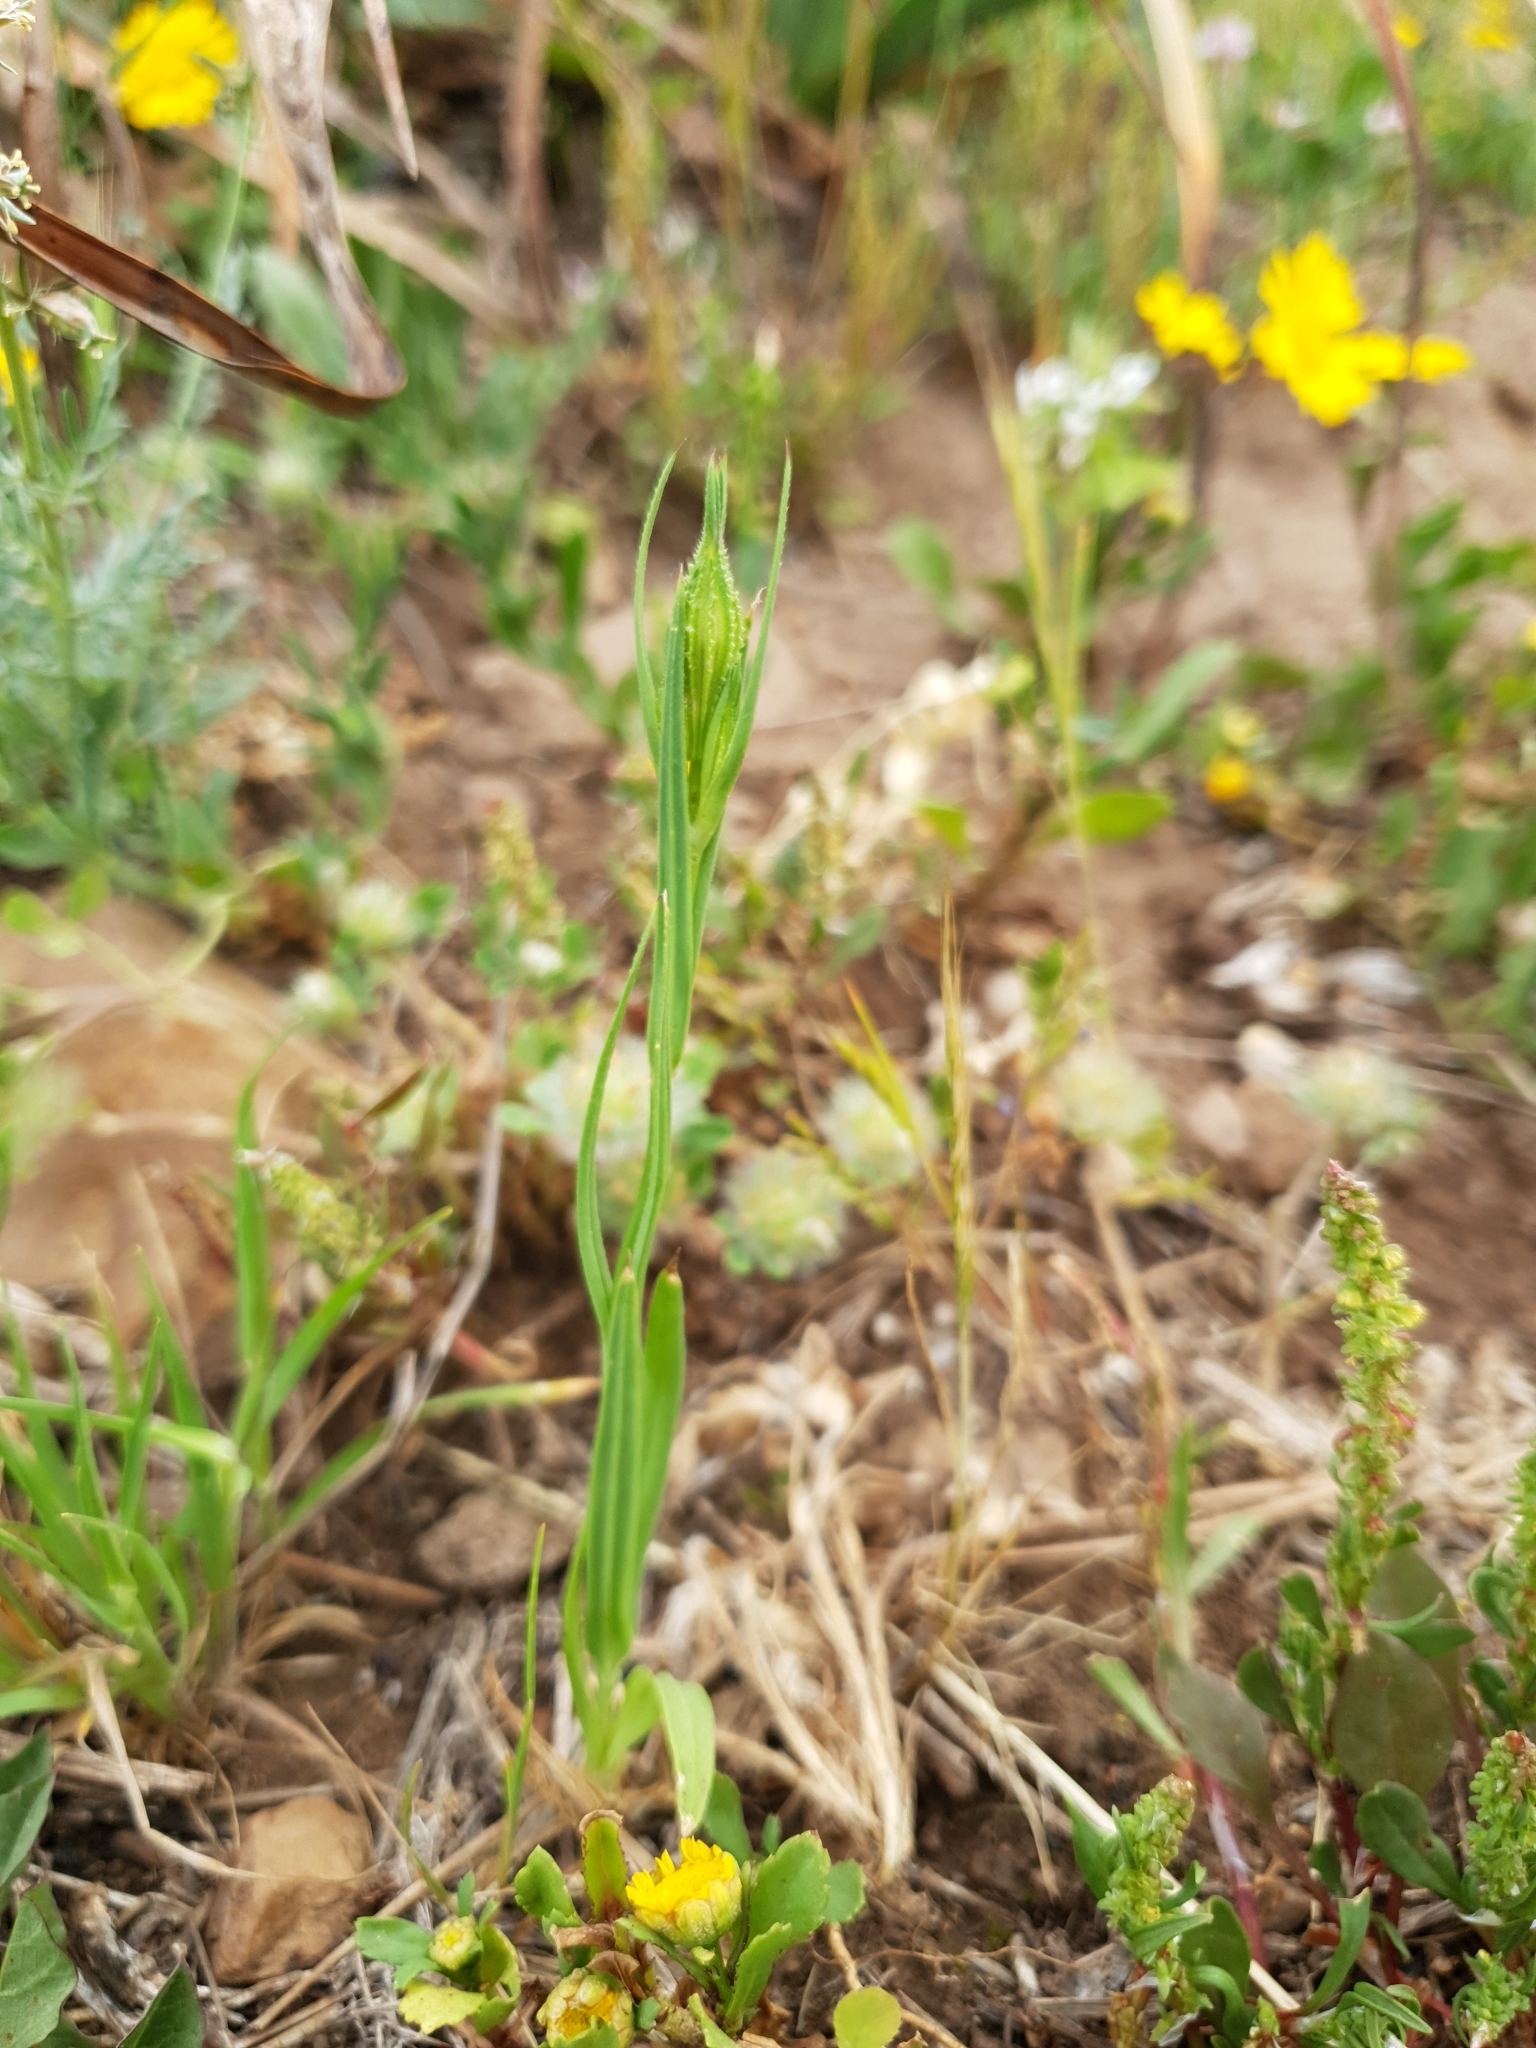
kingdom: Plantae
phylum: Tracheophyta
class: Magnoliopsida
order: Caryophyllales
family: Caryophyllaceae
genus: Eudianthe
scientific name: Eudianthe coeli-rosa
